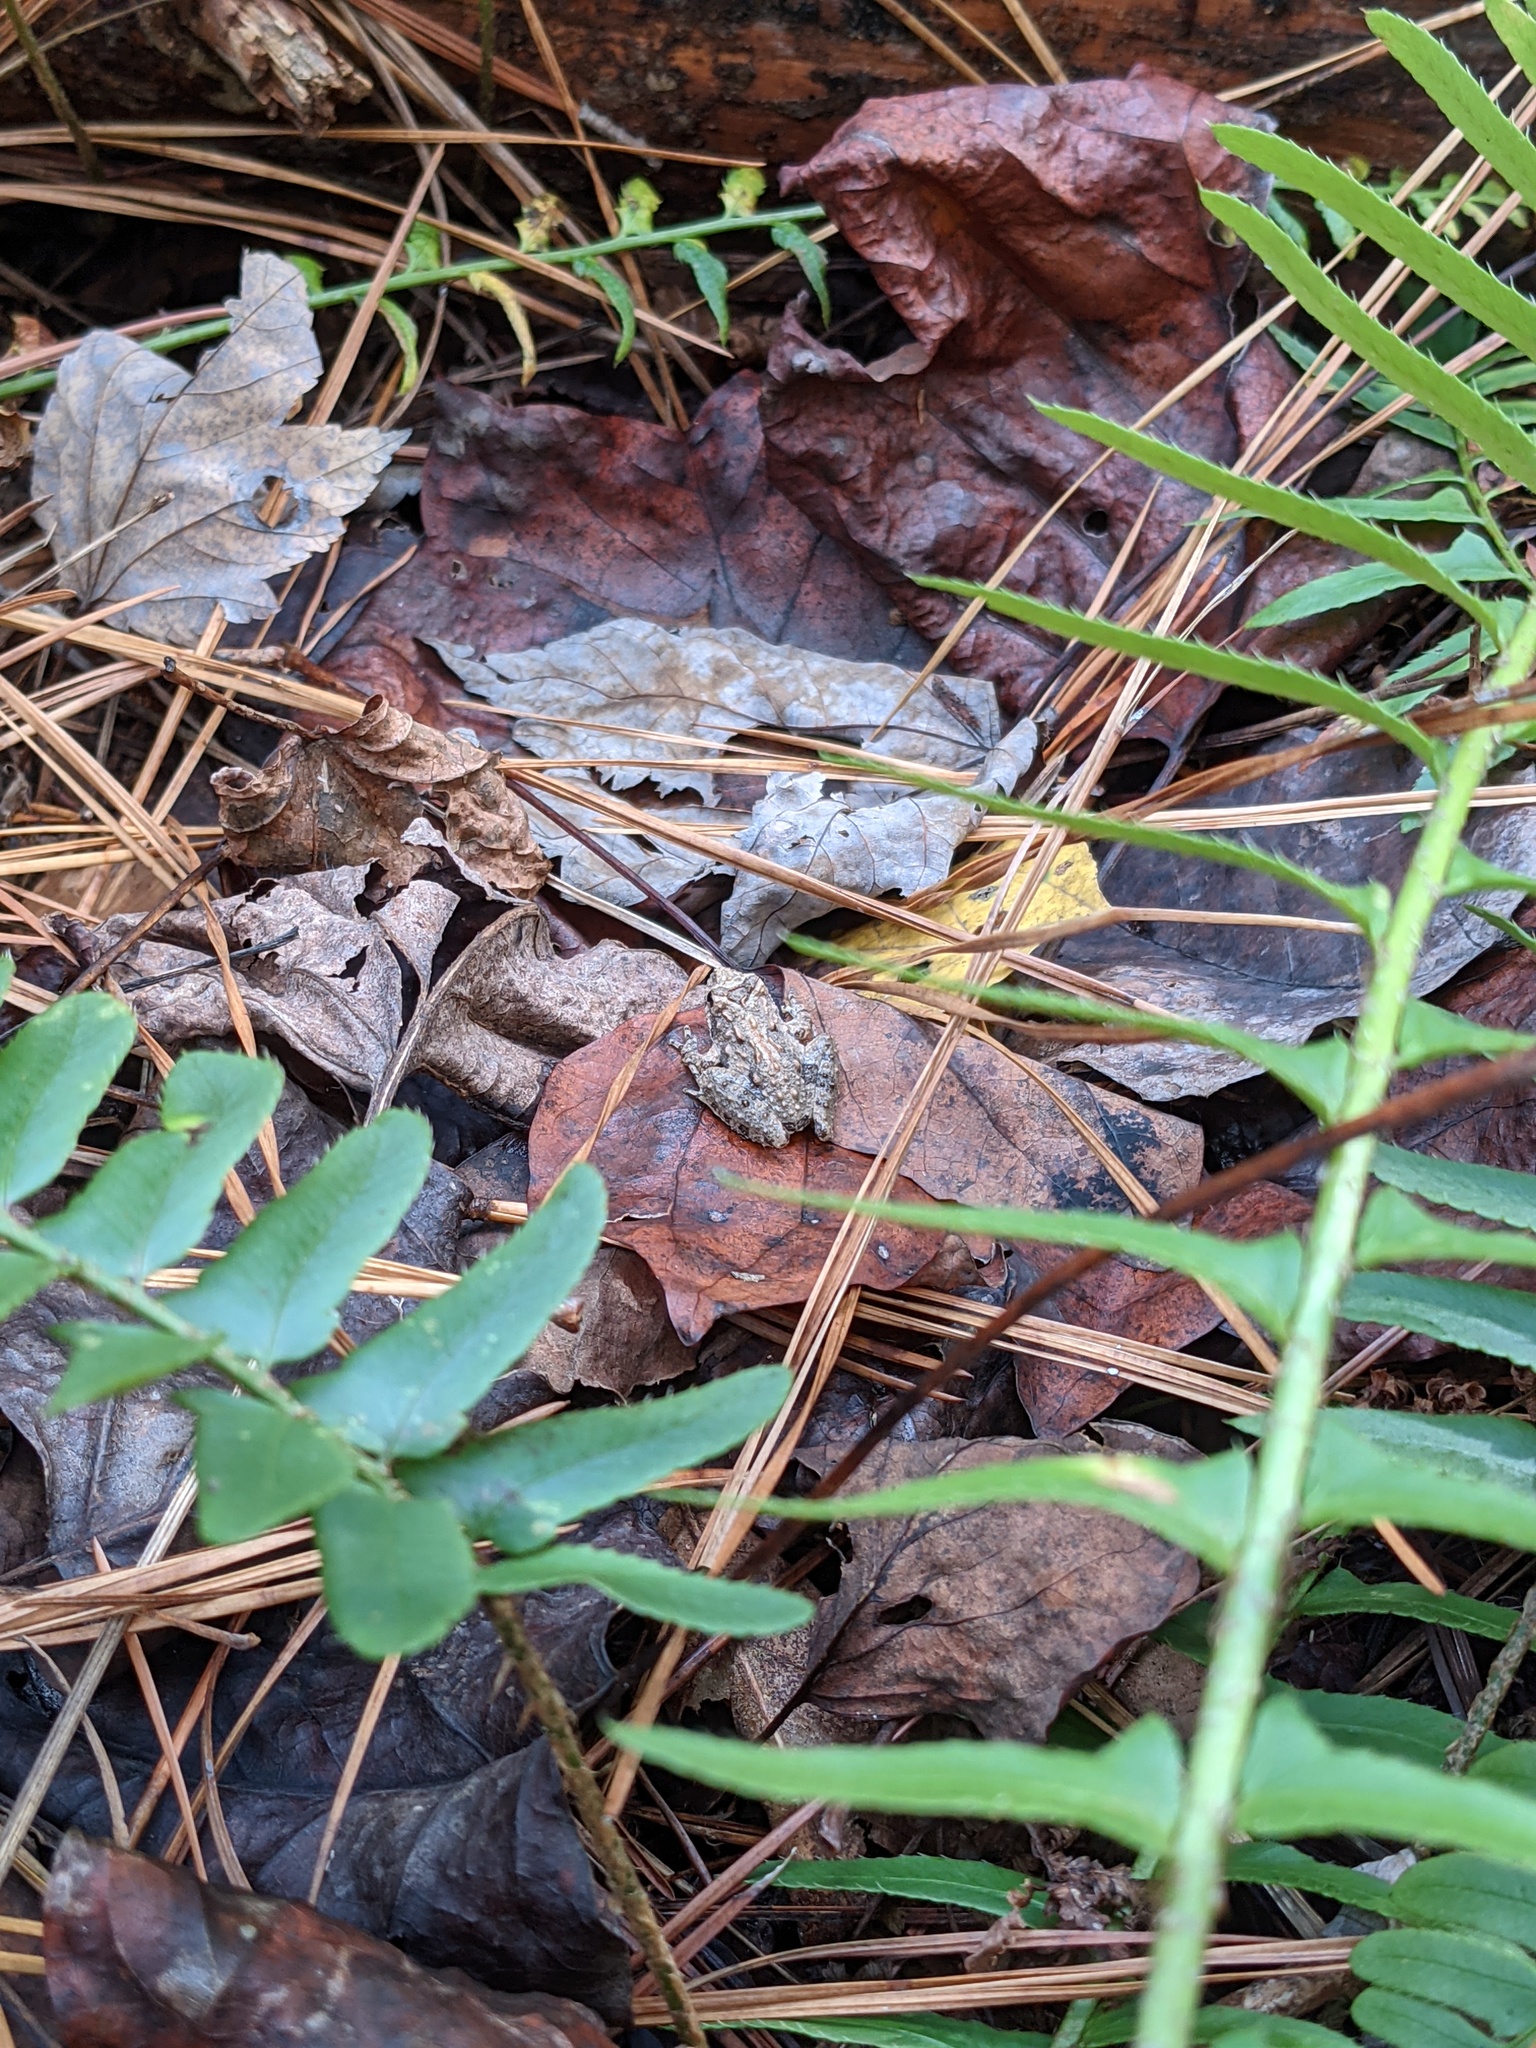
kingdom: Animalia
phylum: Chordata
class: Amphibia
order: Anura
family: Hylidae
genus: Acris
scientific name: Acris crepitans
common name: Northern cricket frog
